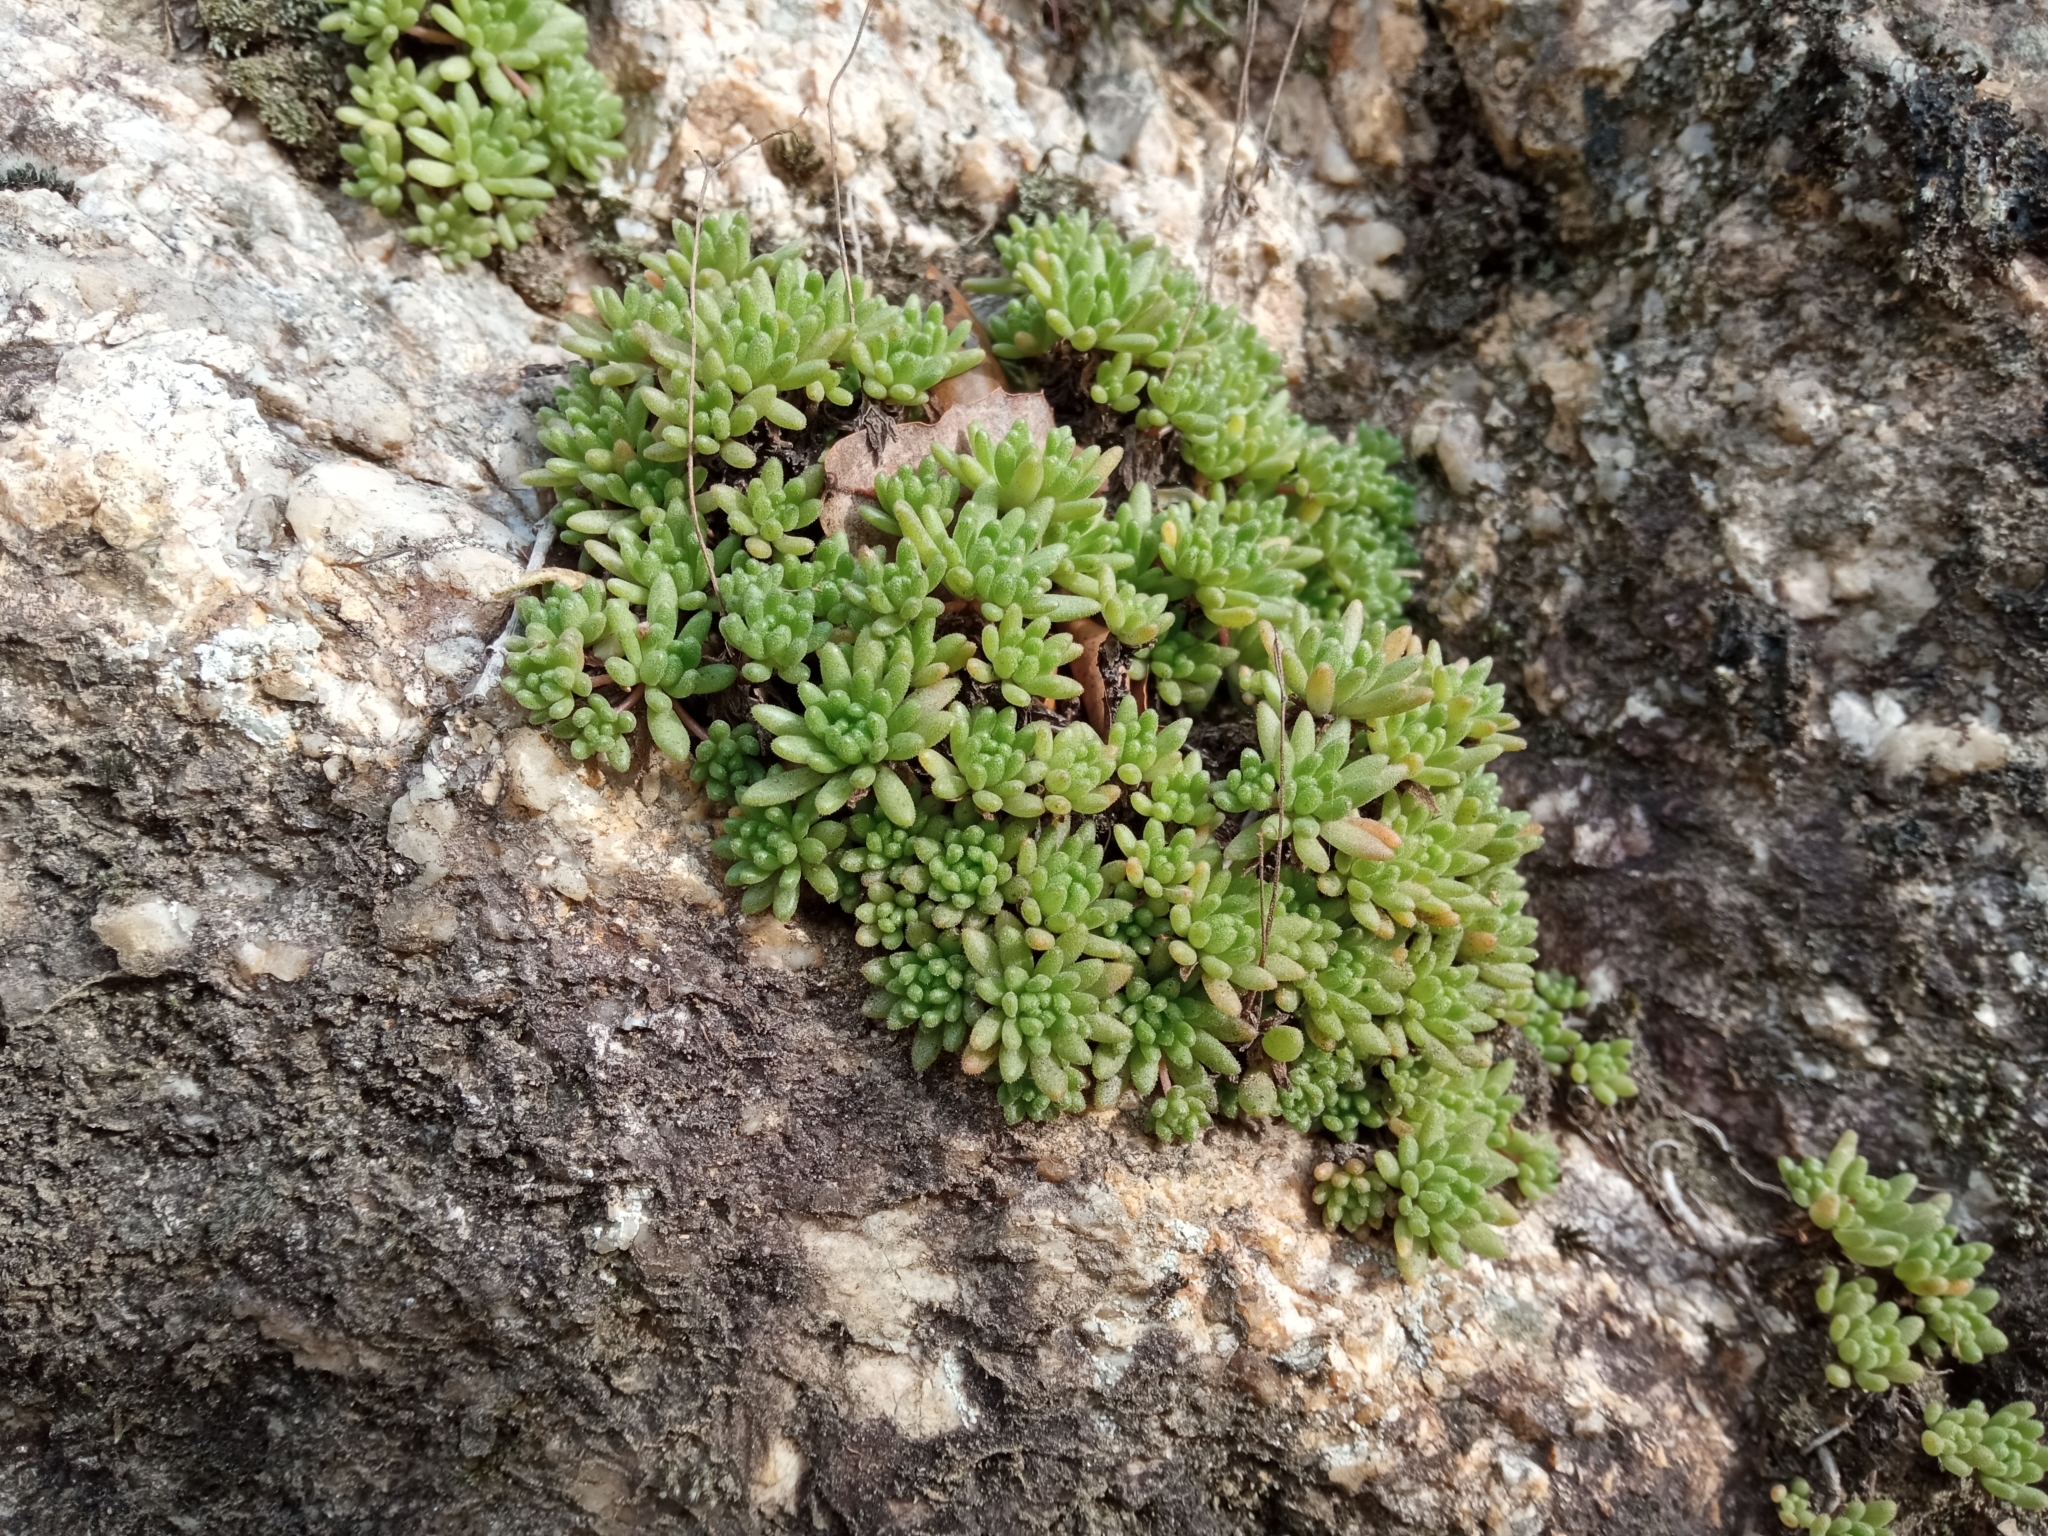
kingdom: Plantae
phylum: Tracheophyta
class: Magnoliopsida
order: Saxifragales
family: Crassulaceae
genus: Sedum
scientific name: Sedum hirsutum
